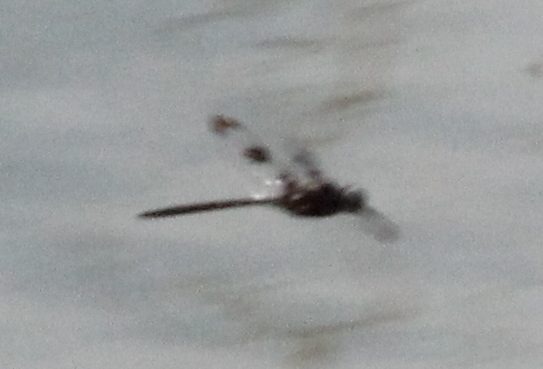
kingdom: Animalia
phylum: Arthropoda
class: Insecta
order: Odonata
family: Corduliidae
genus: Epitheca
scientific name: Epitheca princeps
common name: Prince baskettail
